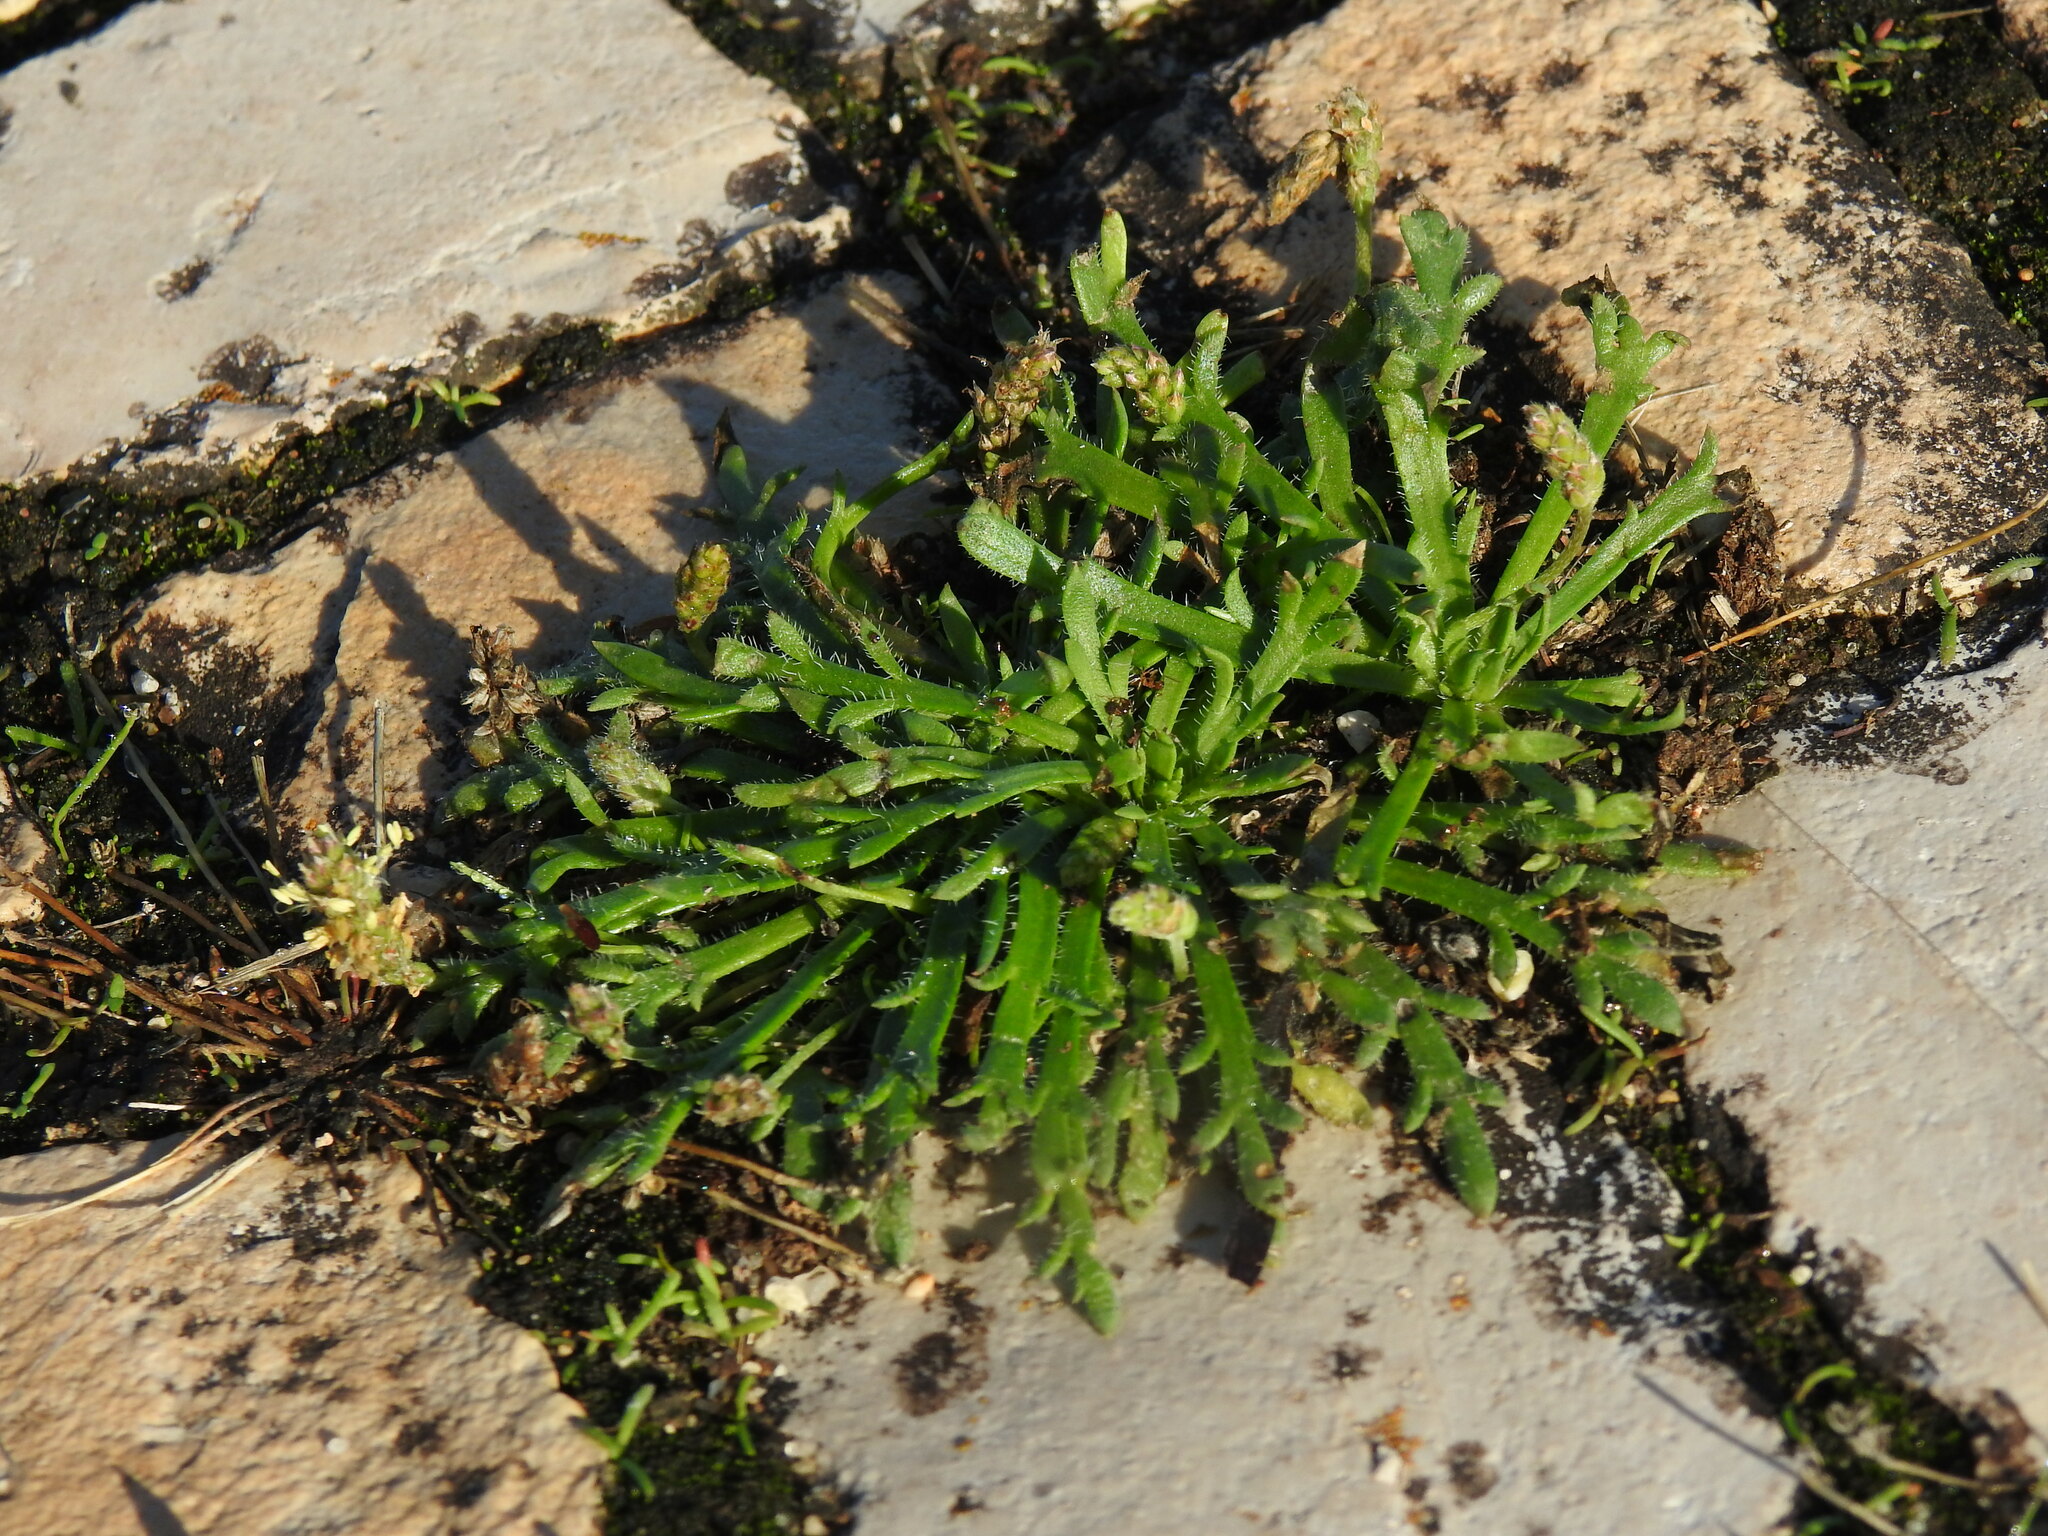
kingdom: Plantae
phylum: Tracheophyta
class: Magnoliopsida
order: Lamiales
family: Plantaginaceae
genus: Plantago
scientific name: Plantago coronopus
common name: Buck's-horn plantain
